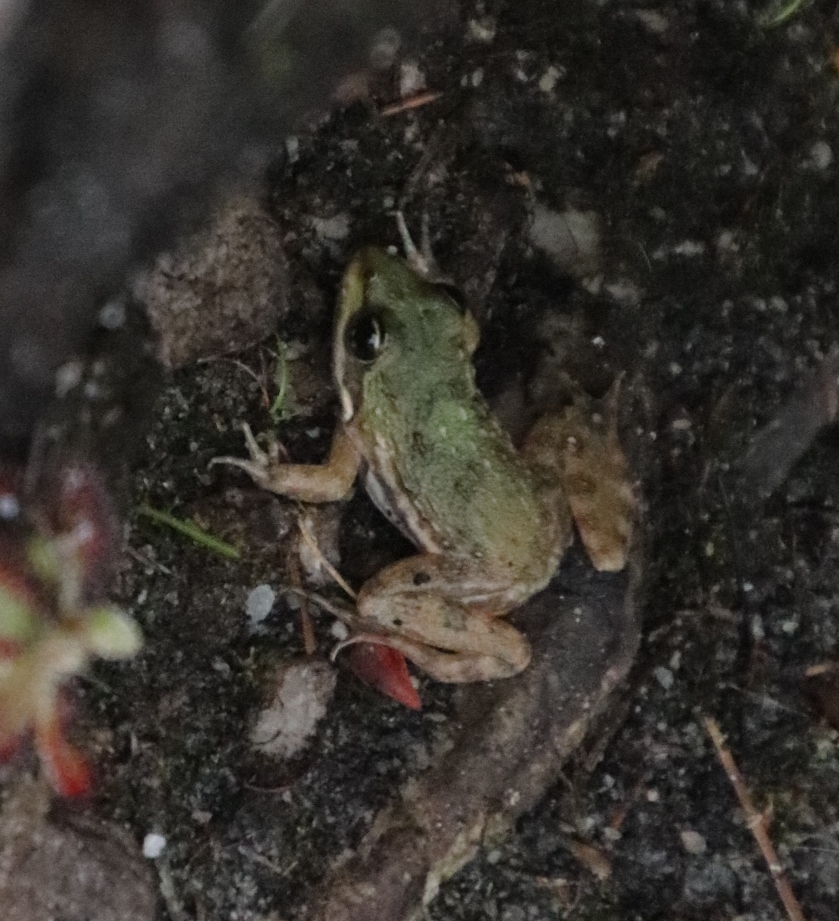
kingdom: Animalia
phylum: Chordata
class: Amphibia
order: Anura
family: Pyxicephalidae
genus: Amietia
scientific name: Amietia fuscigula
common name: Cape rana
